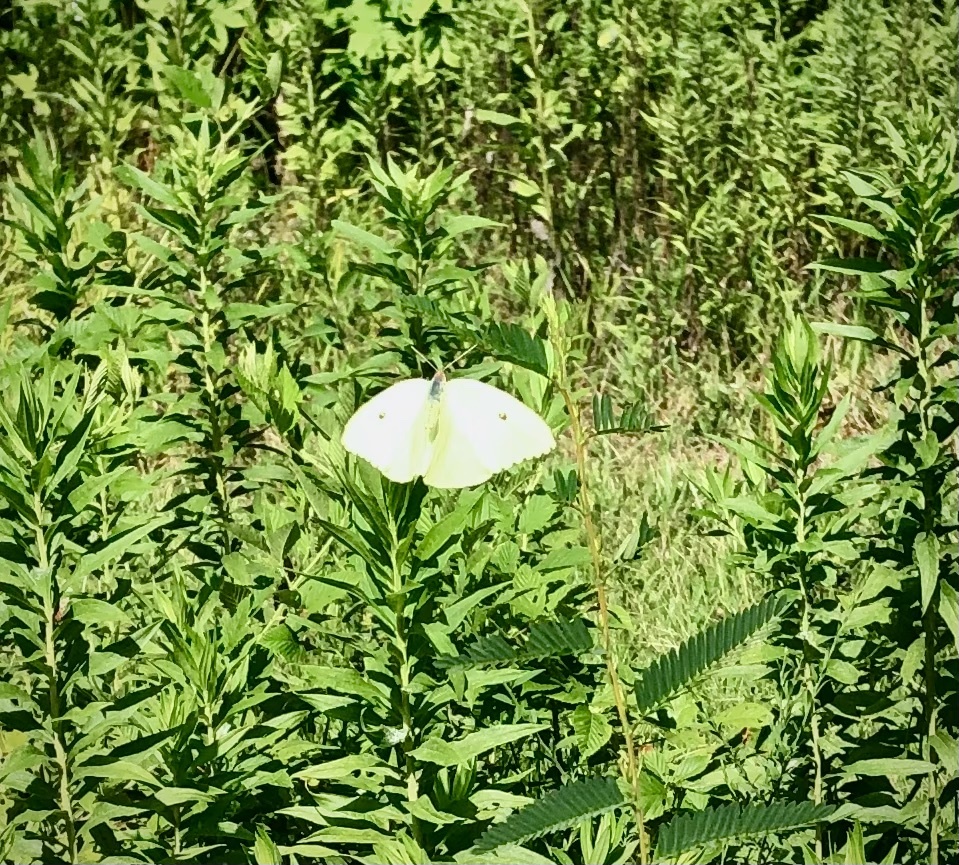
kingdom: Animalia
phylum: Arthropoda
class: Insecta
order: Lepidoptera
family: Pieridae
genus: Phoebis
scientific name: Phoebis sennae
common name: Cloudless sulphur
